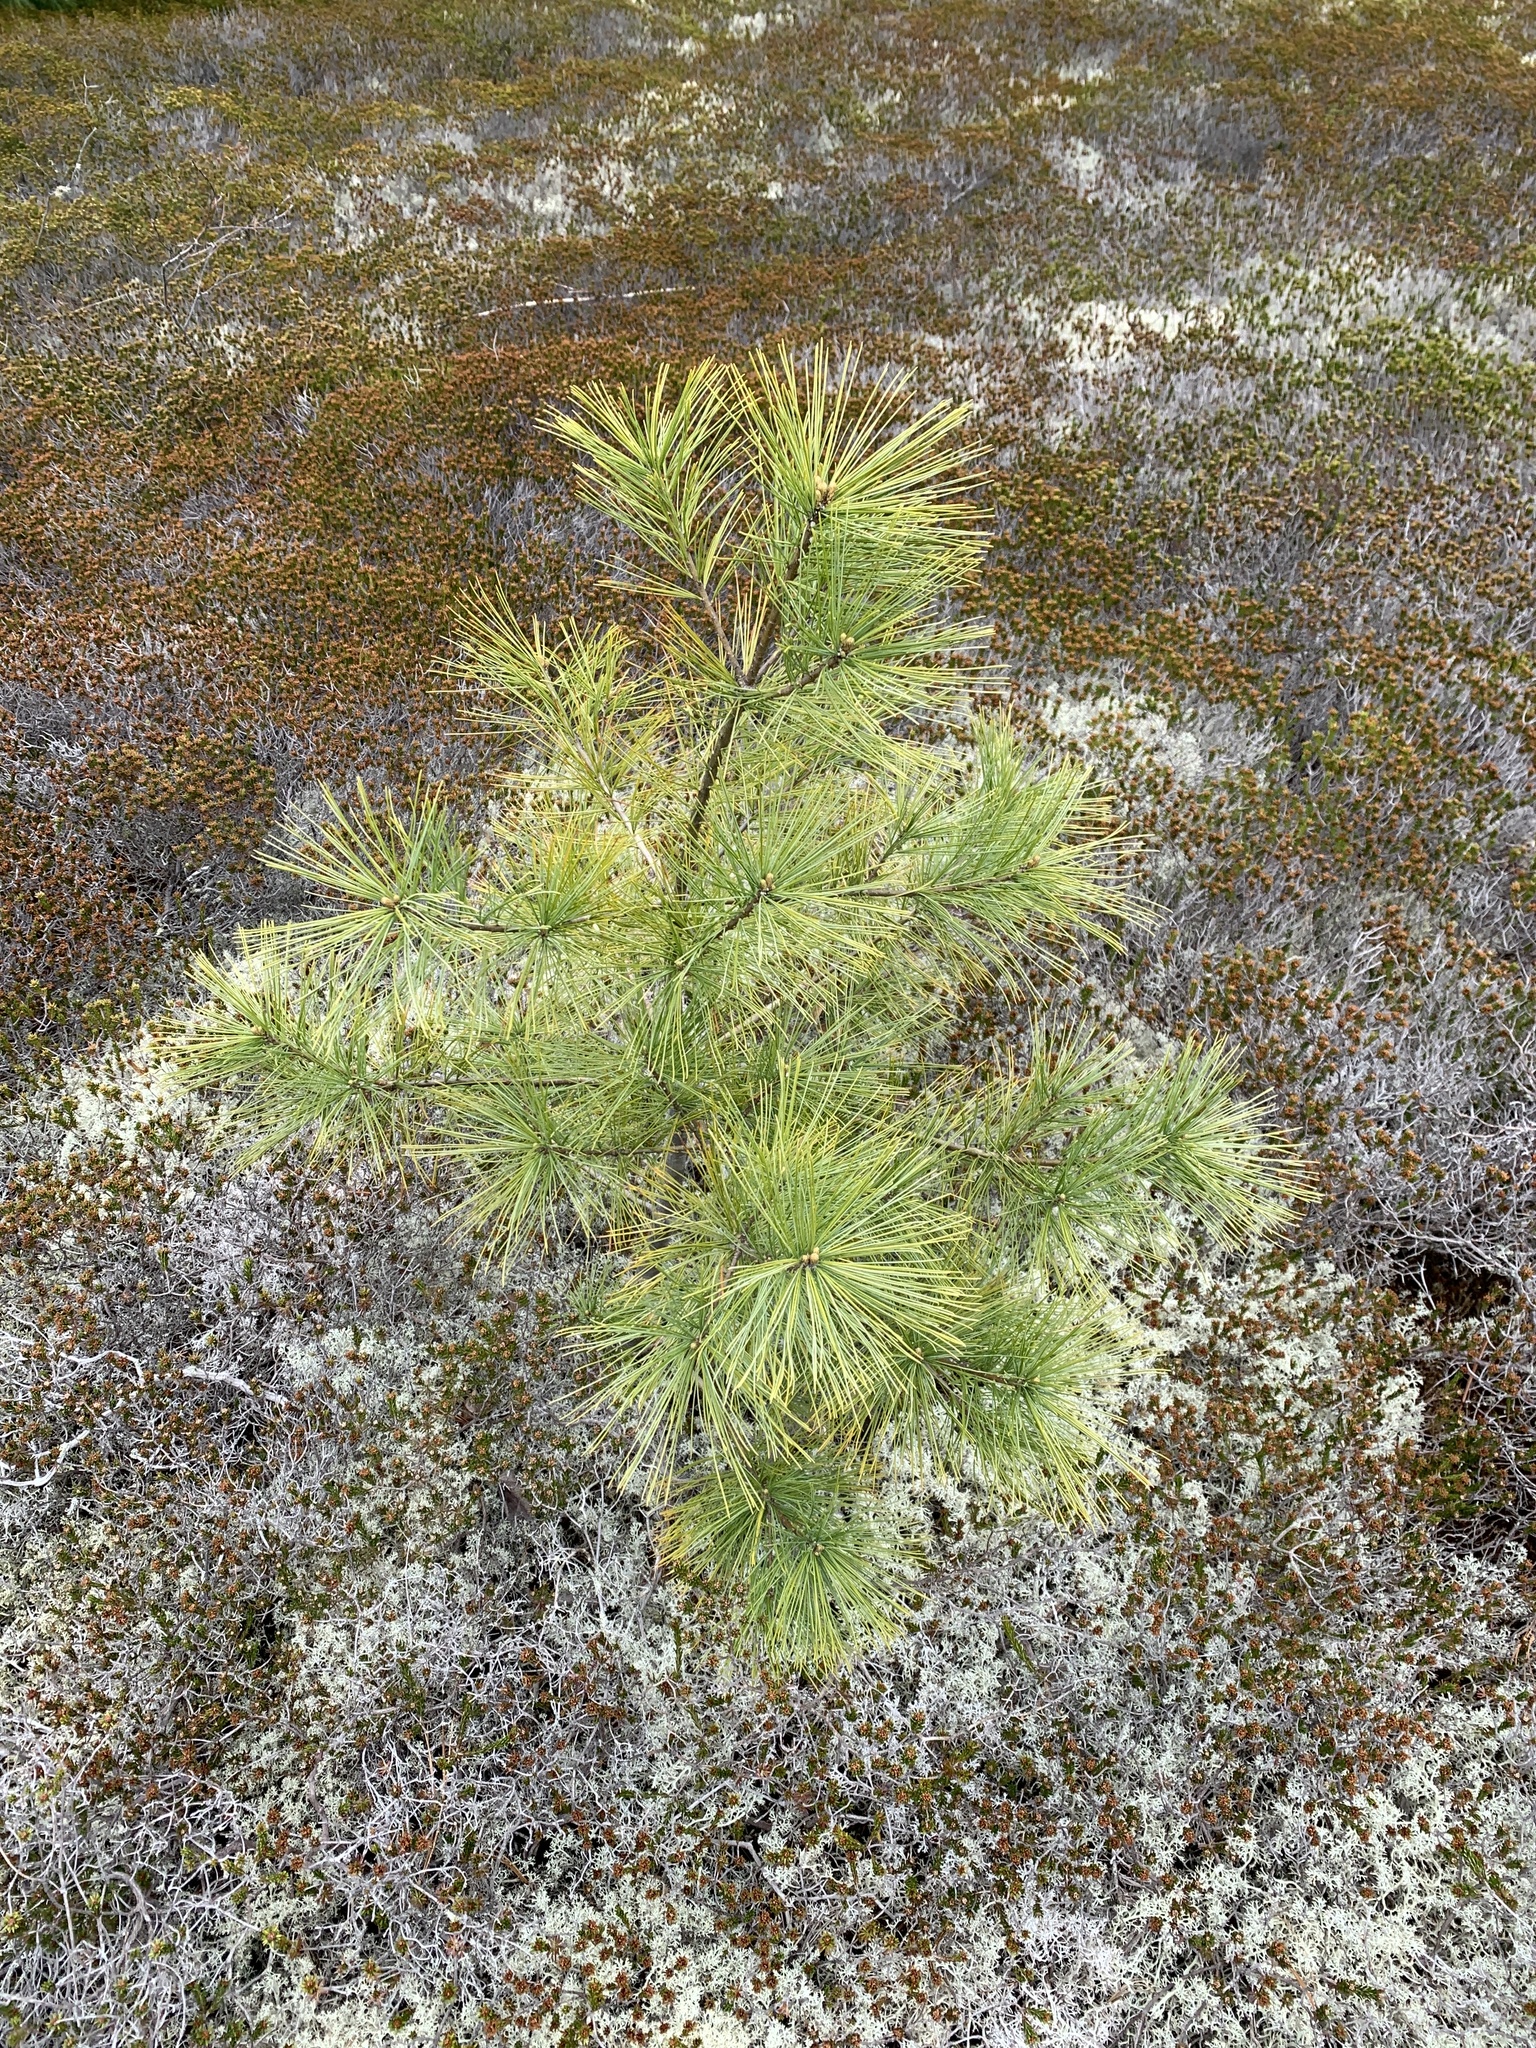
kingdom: Plantae
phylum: Tracheophyta
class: Pinopsida
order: Pinales
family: Pinaceae
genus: Pinus
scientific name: Pinus strobus
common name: Weymouth pine
